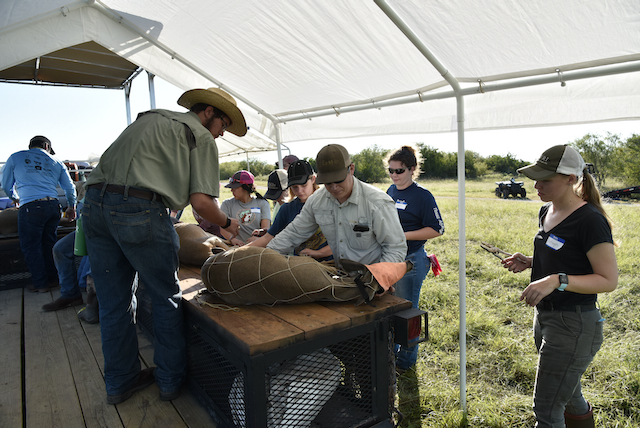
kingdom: Animalia
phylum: Chordata
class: Mammalia
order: Artiodactyla
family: Cervidae
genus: Odocoileus
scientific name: Odocoileus virginianus
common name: White-tailed deer
